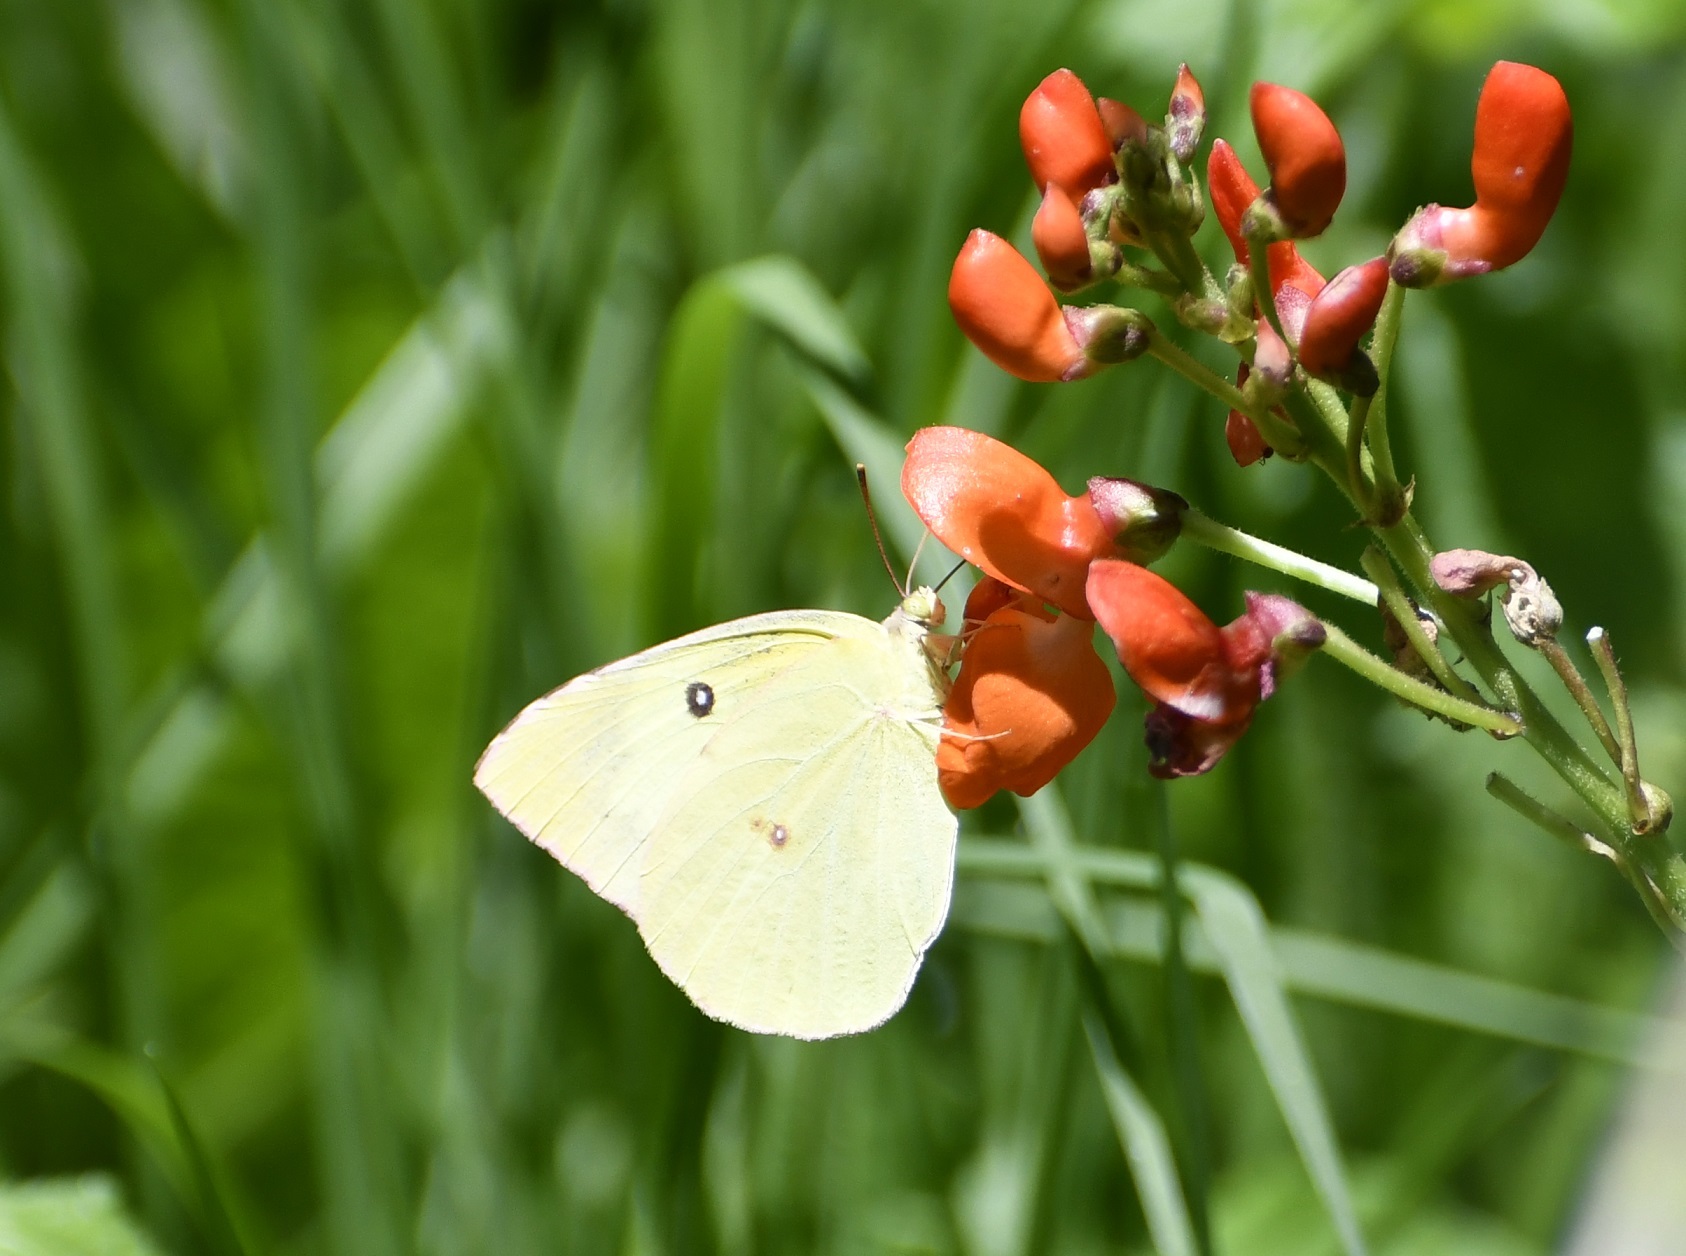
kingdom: Animalia
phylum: Arthropoda
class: Insecta
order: Lepidoptera
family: Pieridae
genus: Zerene
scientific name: Zerene cesonia
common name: Southern dogface
